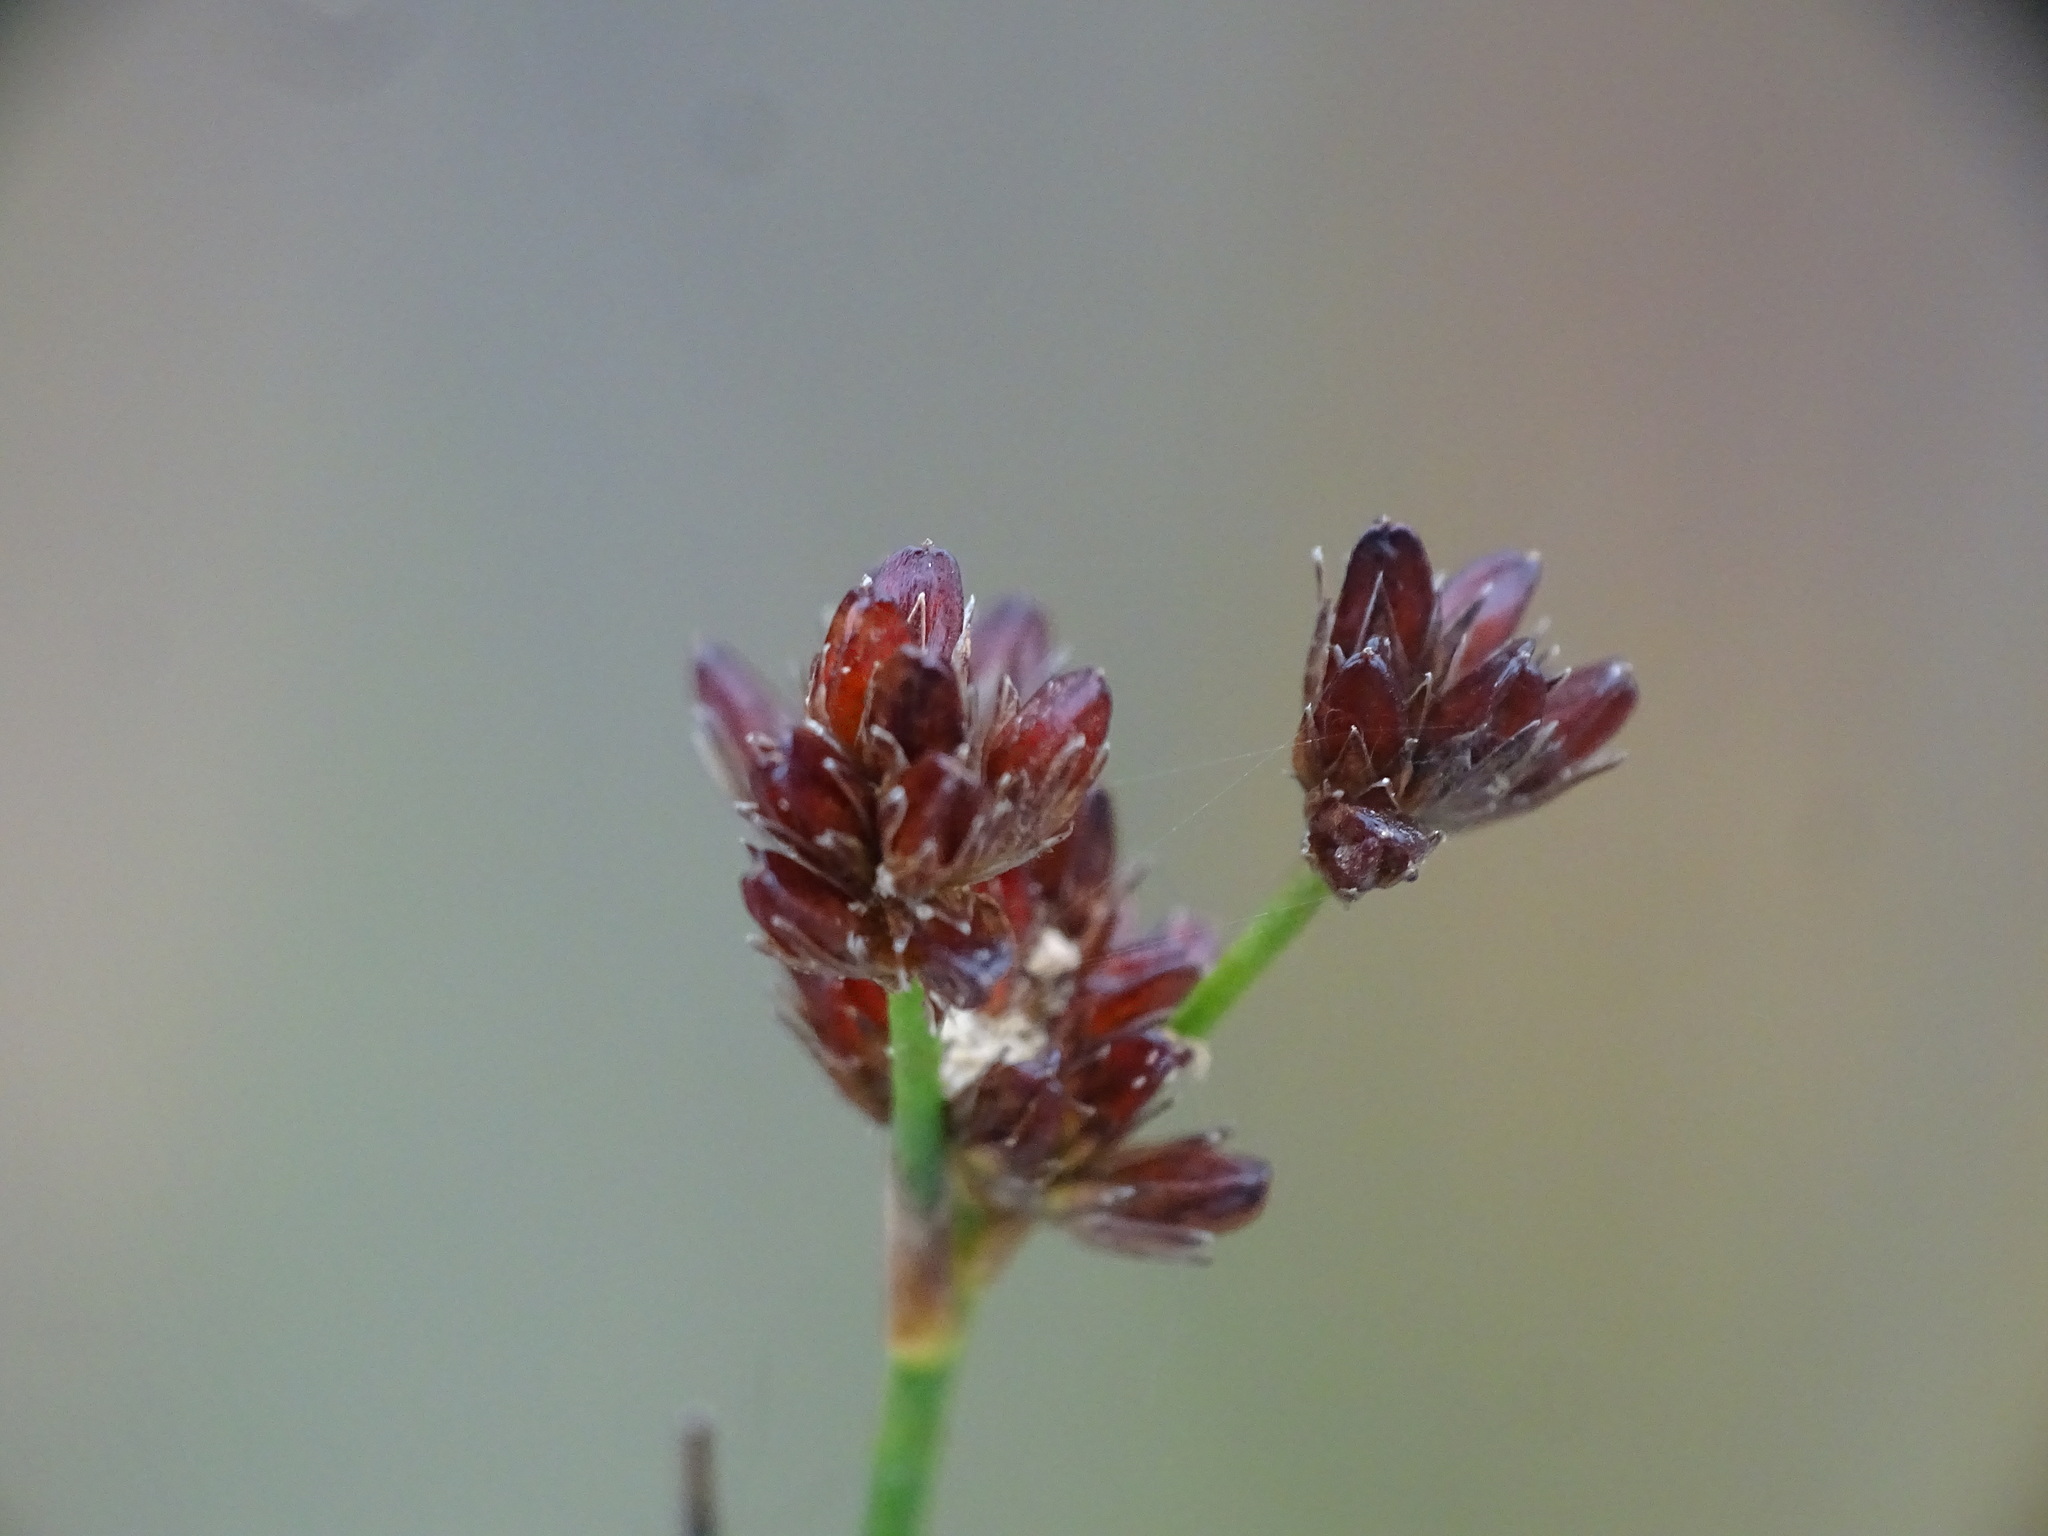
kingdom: Plantae
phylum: Tracheophyta
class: Liliopsida
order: Poales
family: Juncaceae
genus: Juncus
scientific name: Juncus canadensis
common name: Canada rush
